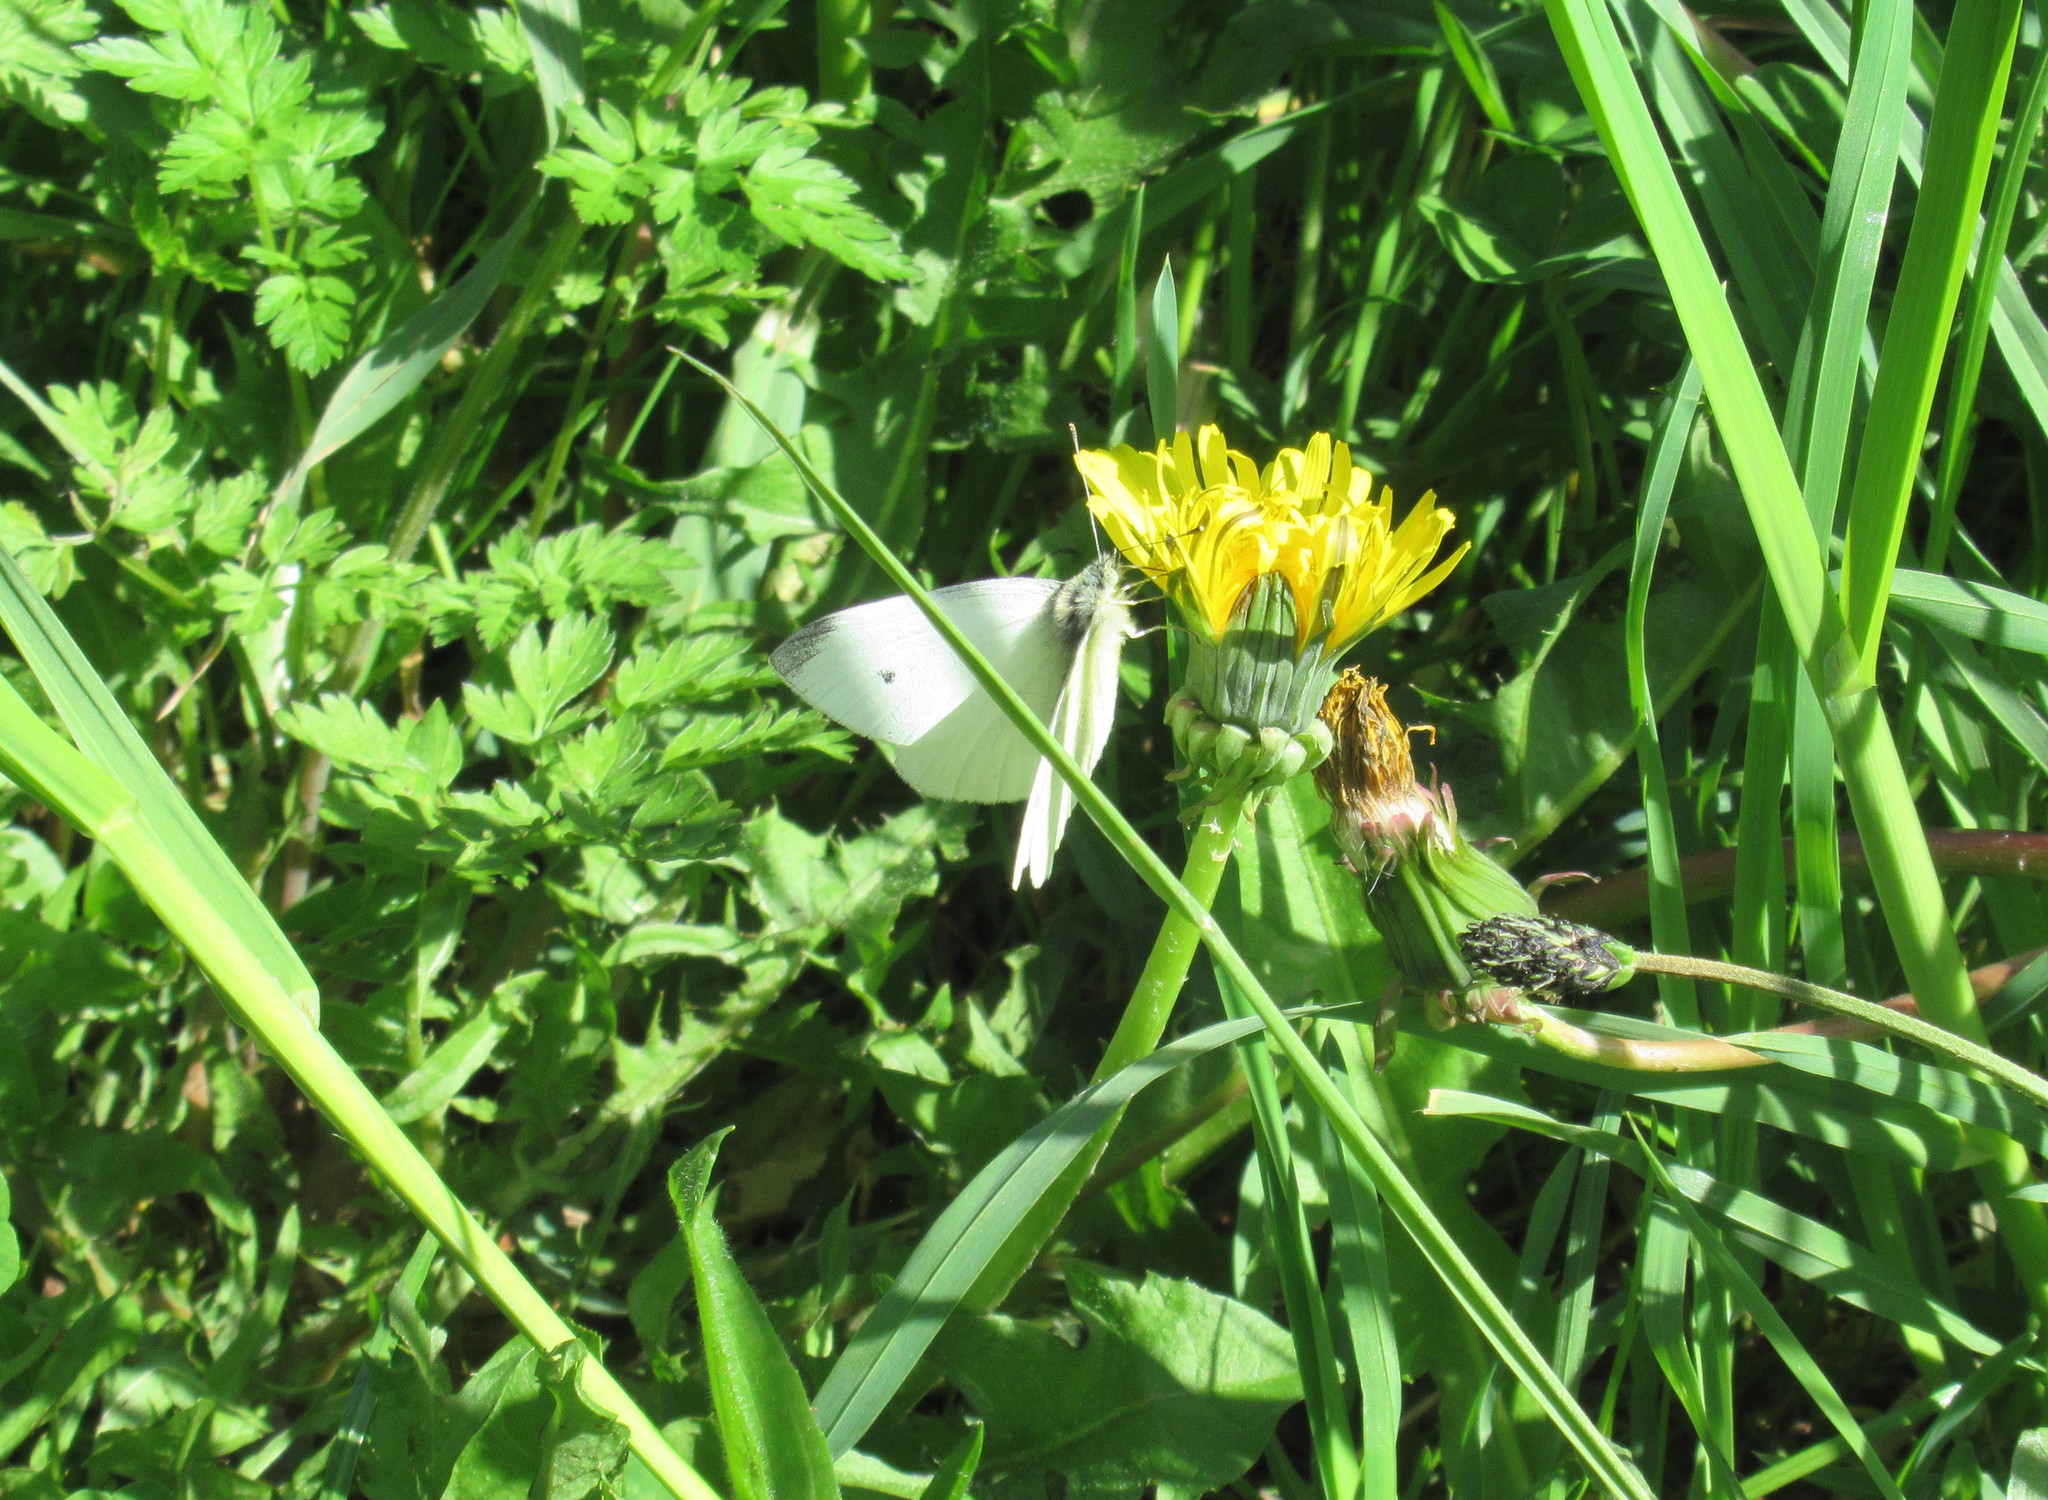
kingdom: Animalia
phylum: Arthropoda
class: Insecta
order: Lepidoptera
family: Pieridae
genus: Pieris
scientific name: Pieris rapae
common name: Small white
